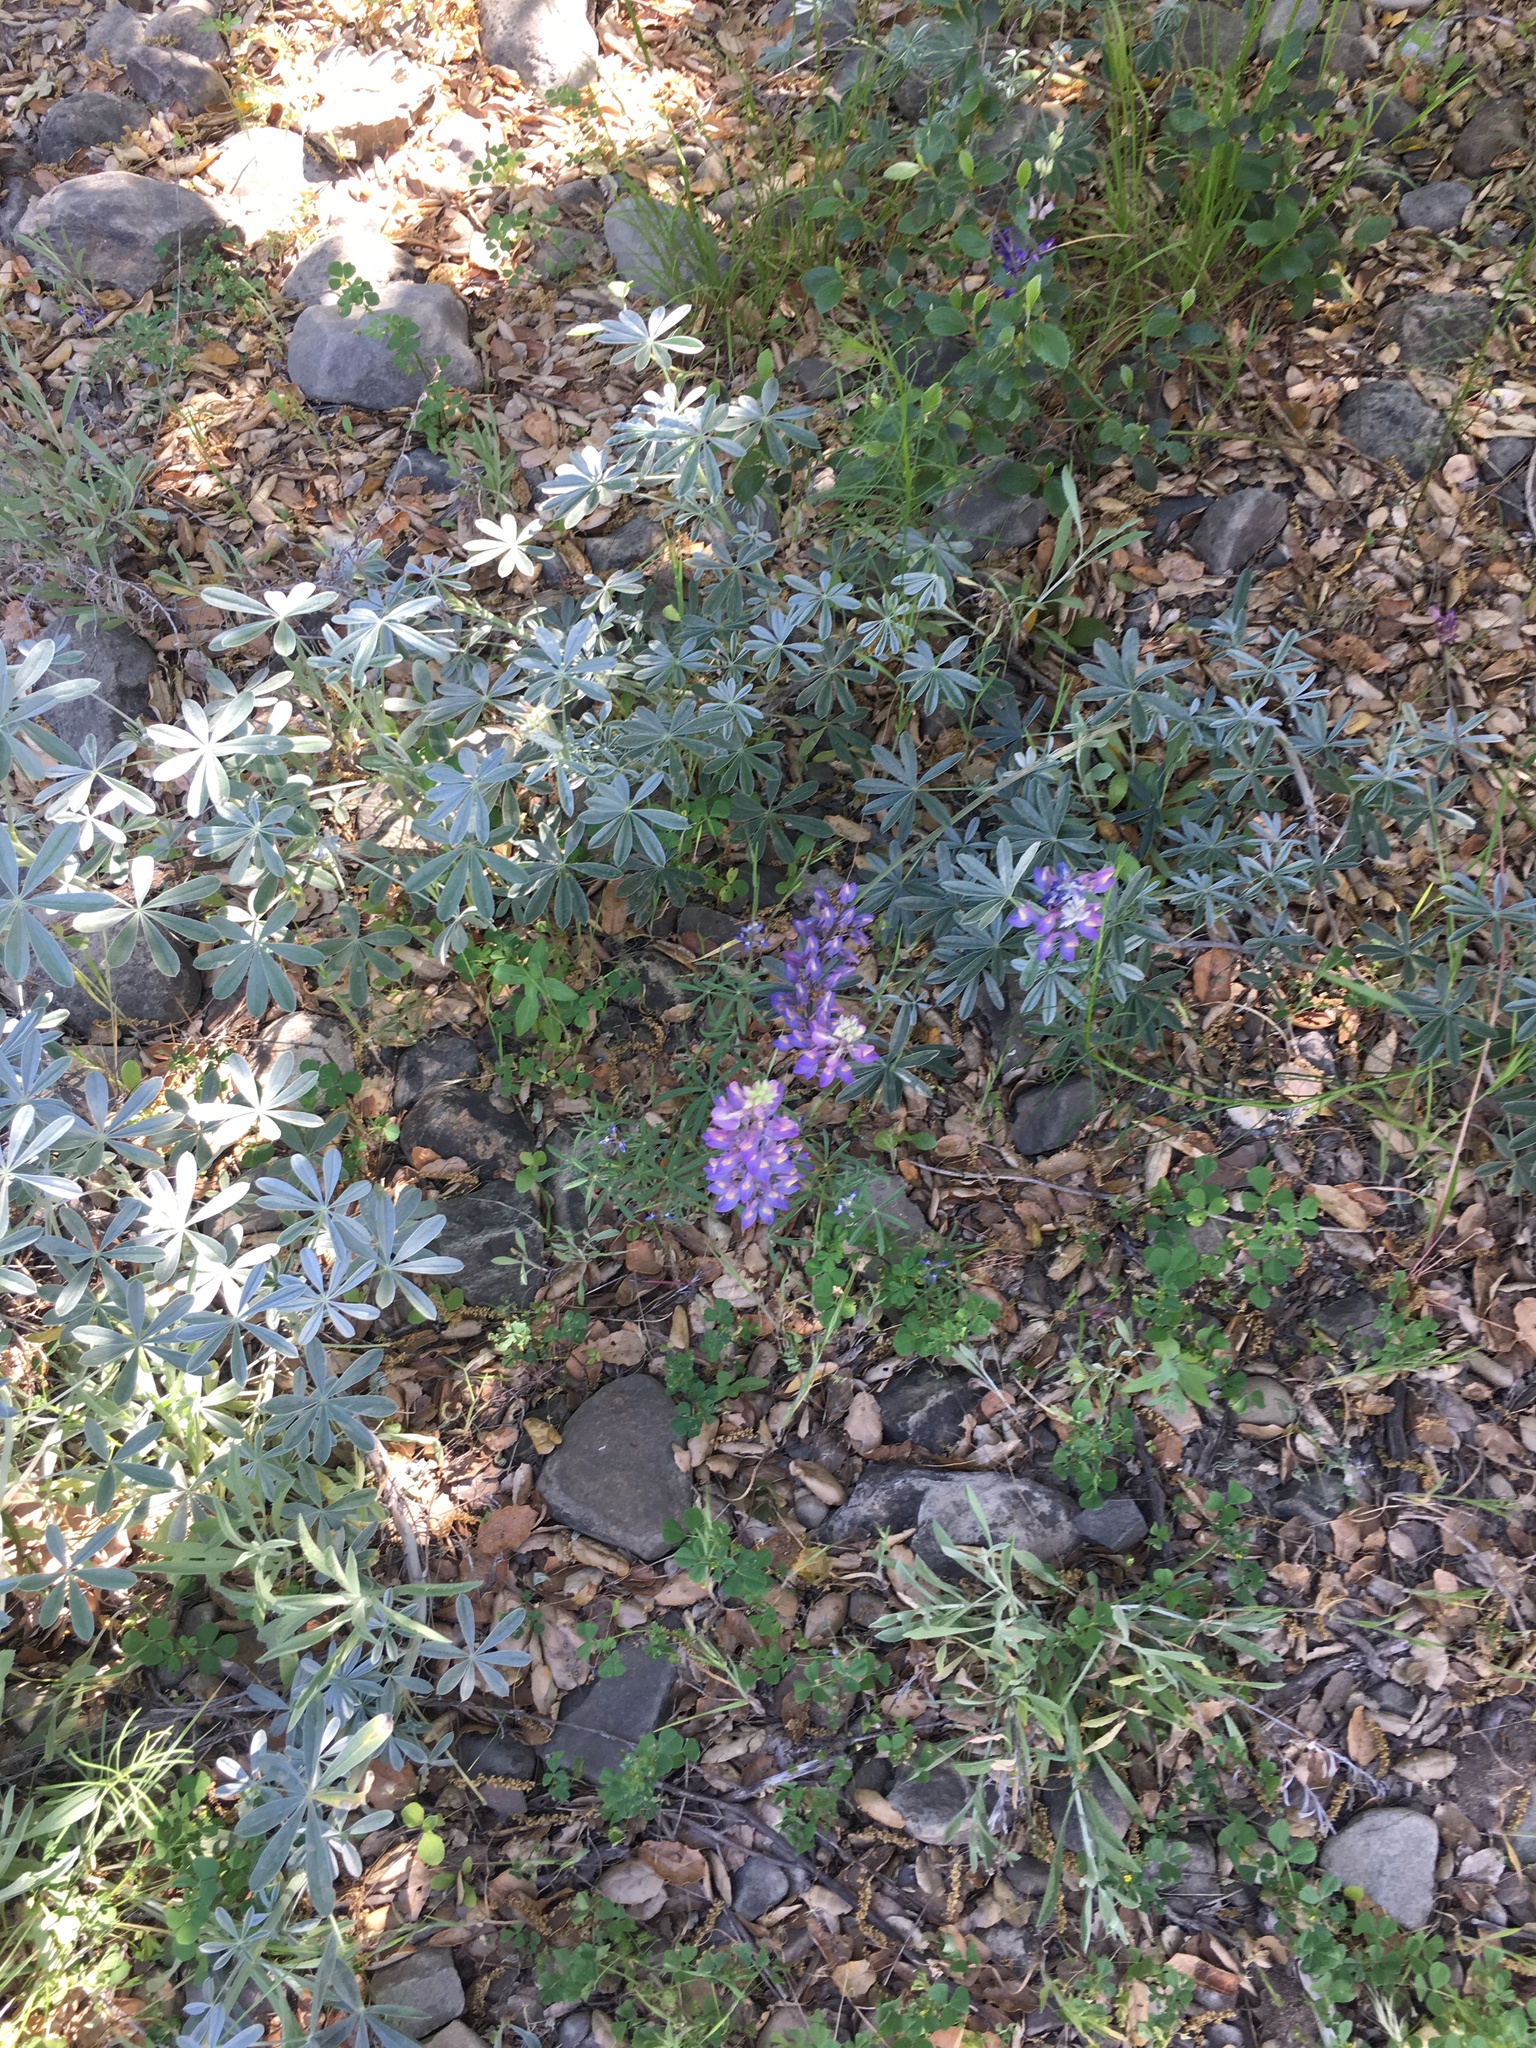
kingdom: Plantae
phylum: Tracheophyta
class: Magnoliopsida
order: Fabales
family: Fabaceae
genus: Lupinus
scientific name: Lupinus albifrons
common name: Foothill lupine
